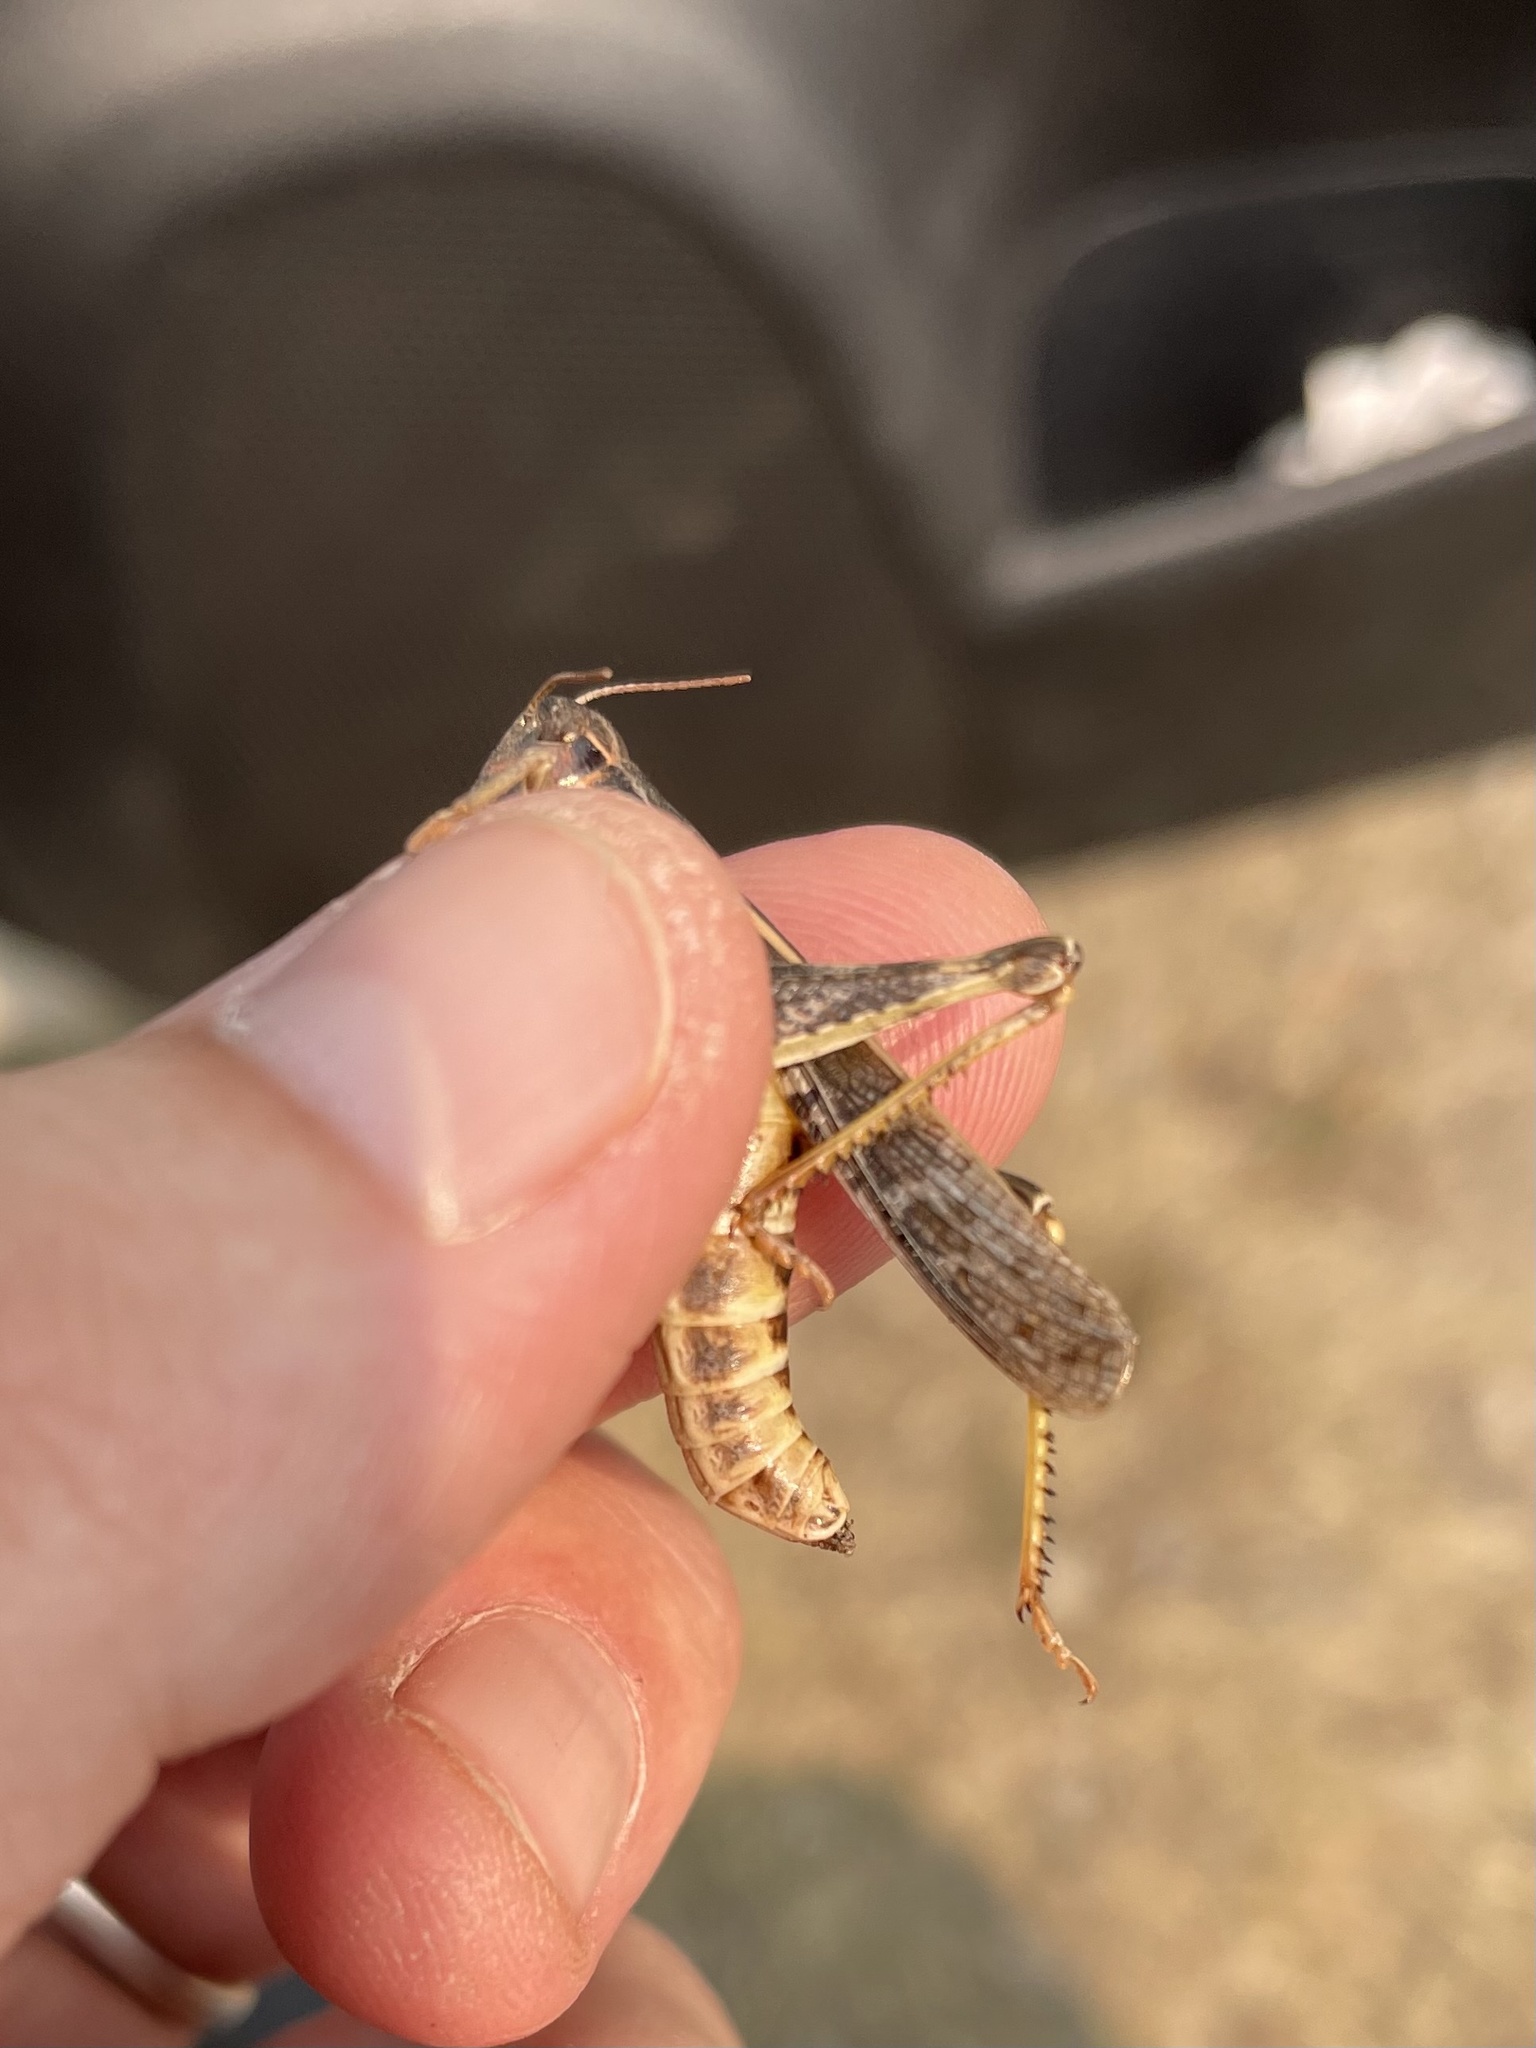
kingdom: Animalia
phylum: Arthropoda
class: Insecta
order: Orthoptera
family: Acrididae
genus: Camnula
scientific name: Camnula pellucida
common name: Clear-winged grasshopper
